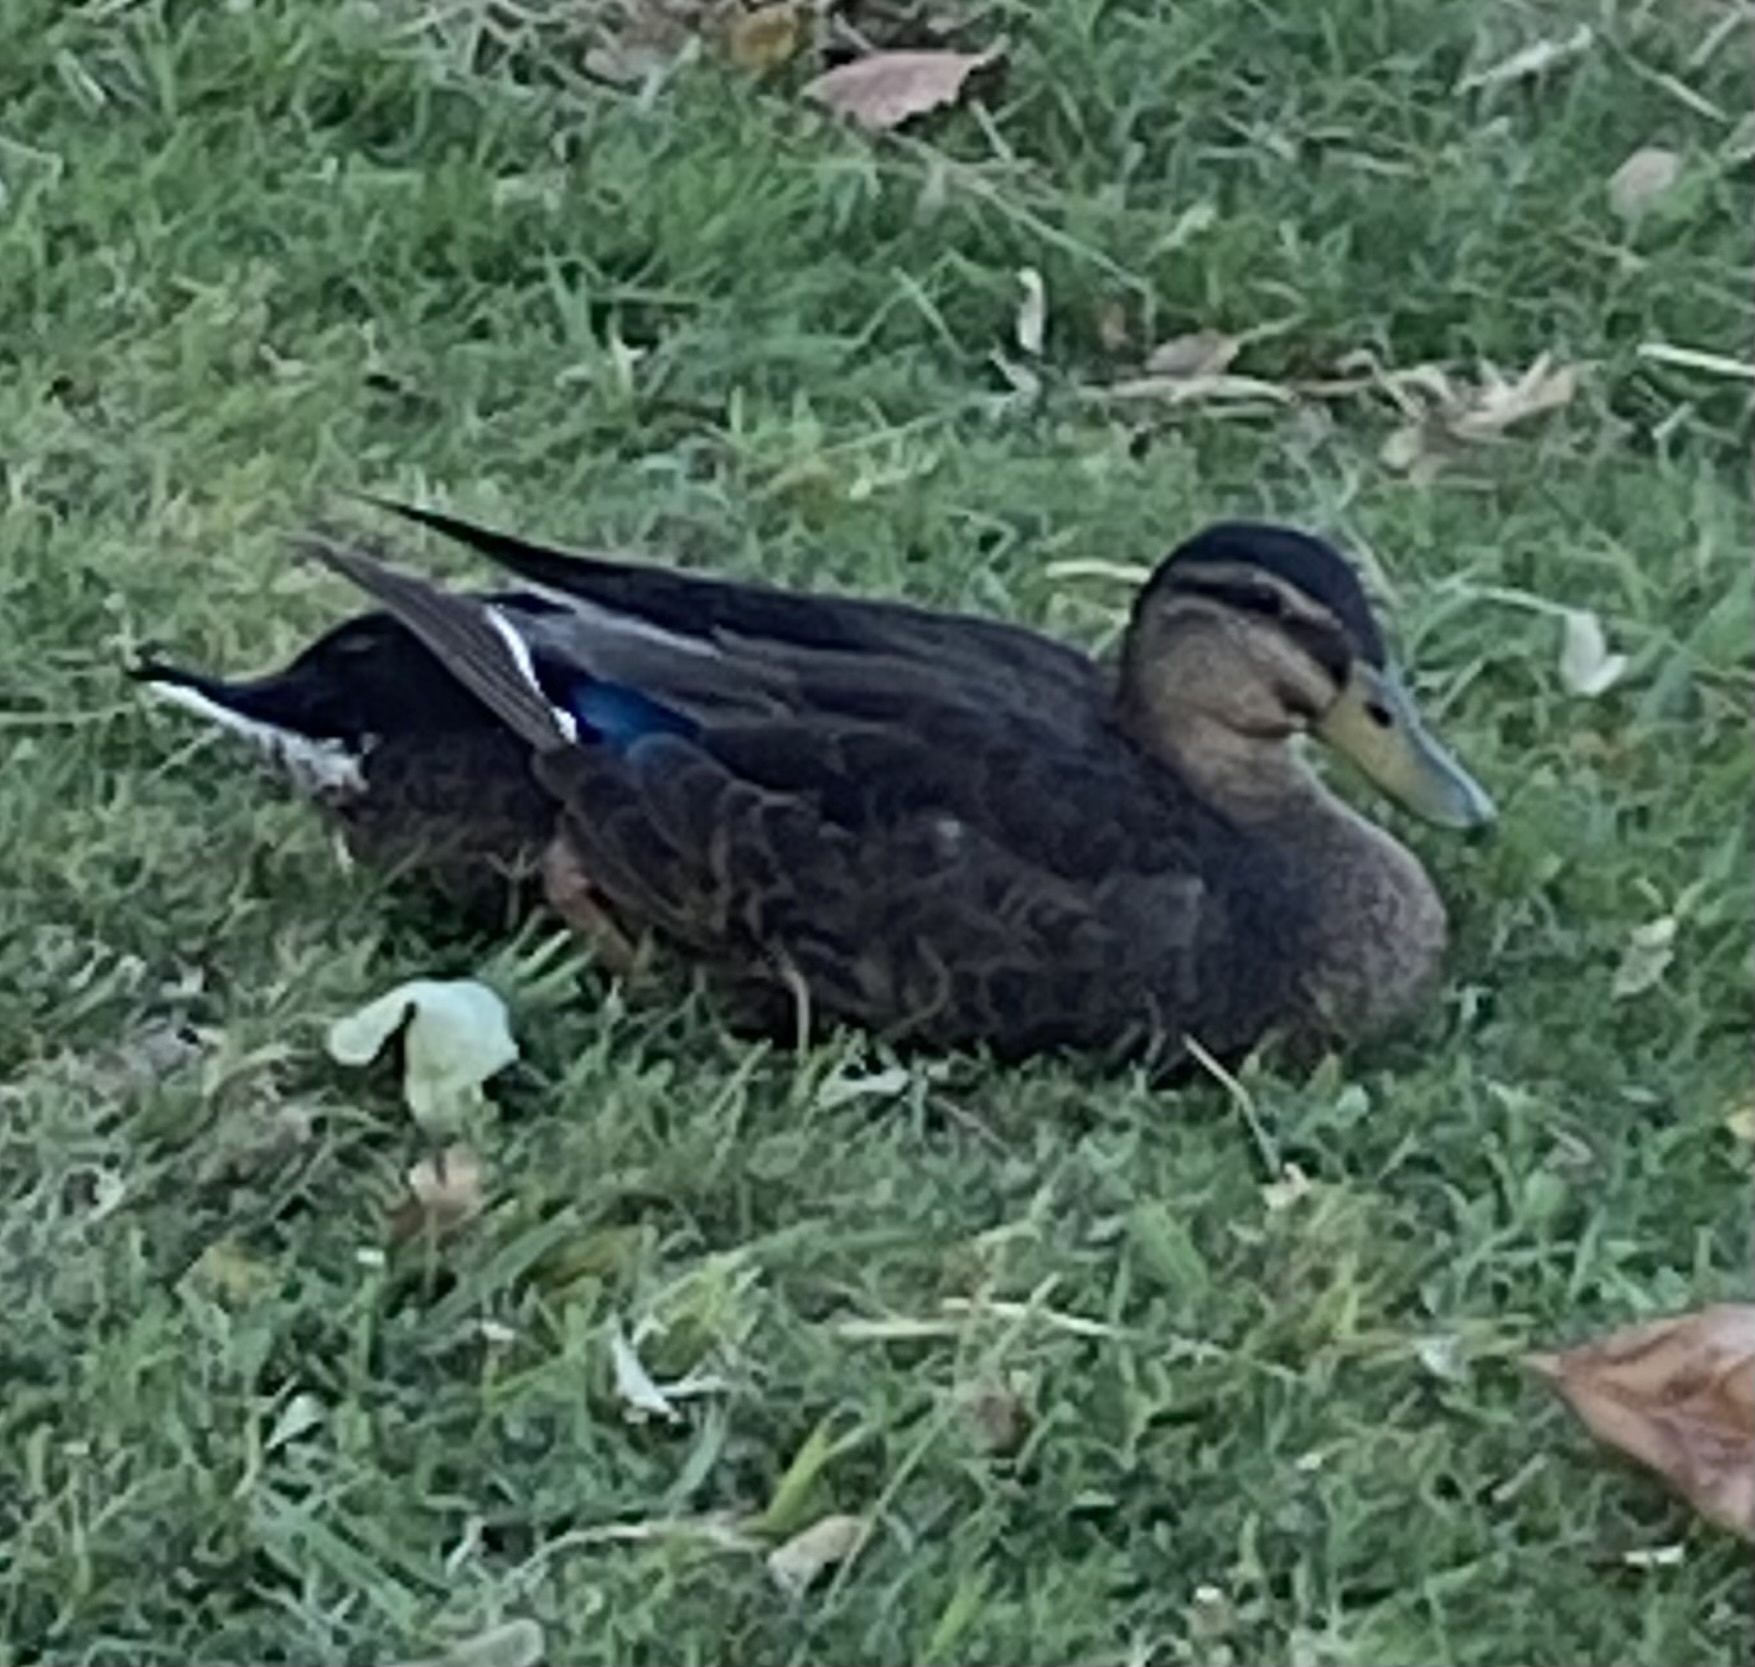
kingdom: Animalia
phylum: Chordata
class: Aves
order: Anseriformes
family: Anatidae
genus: Anas
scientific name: Anas platyrhynchos
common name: Mallard
